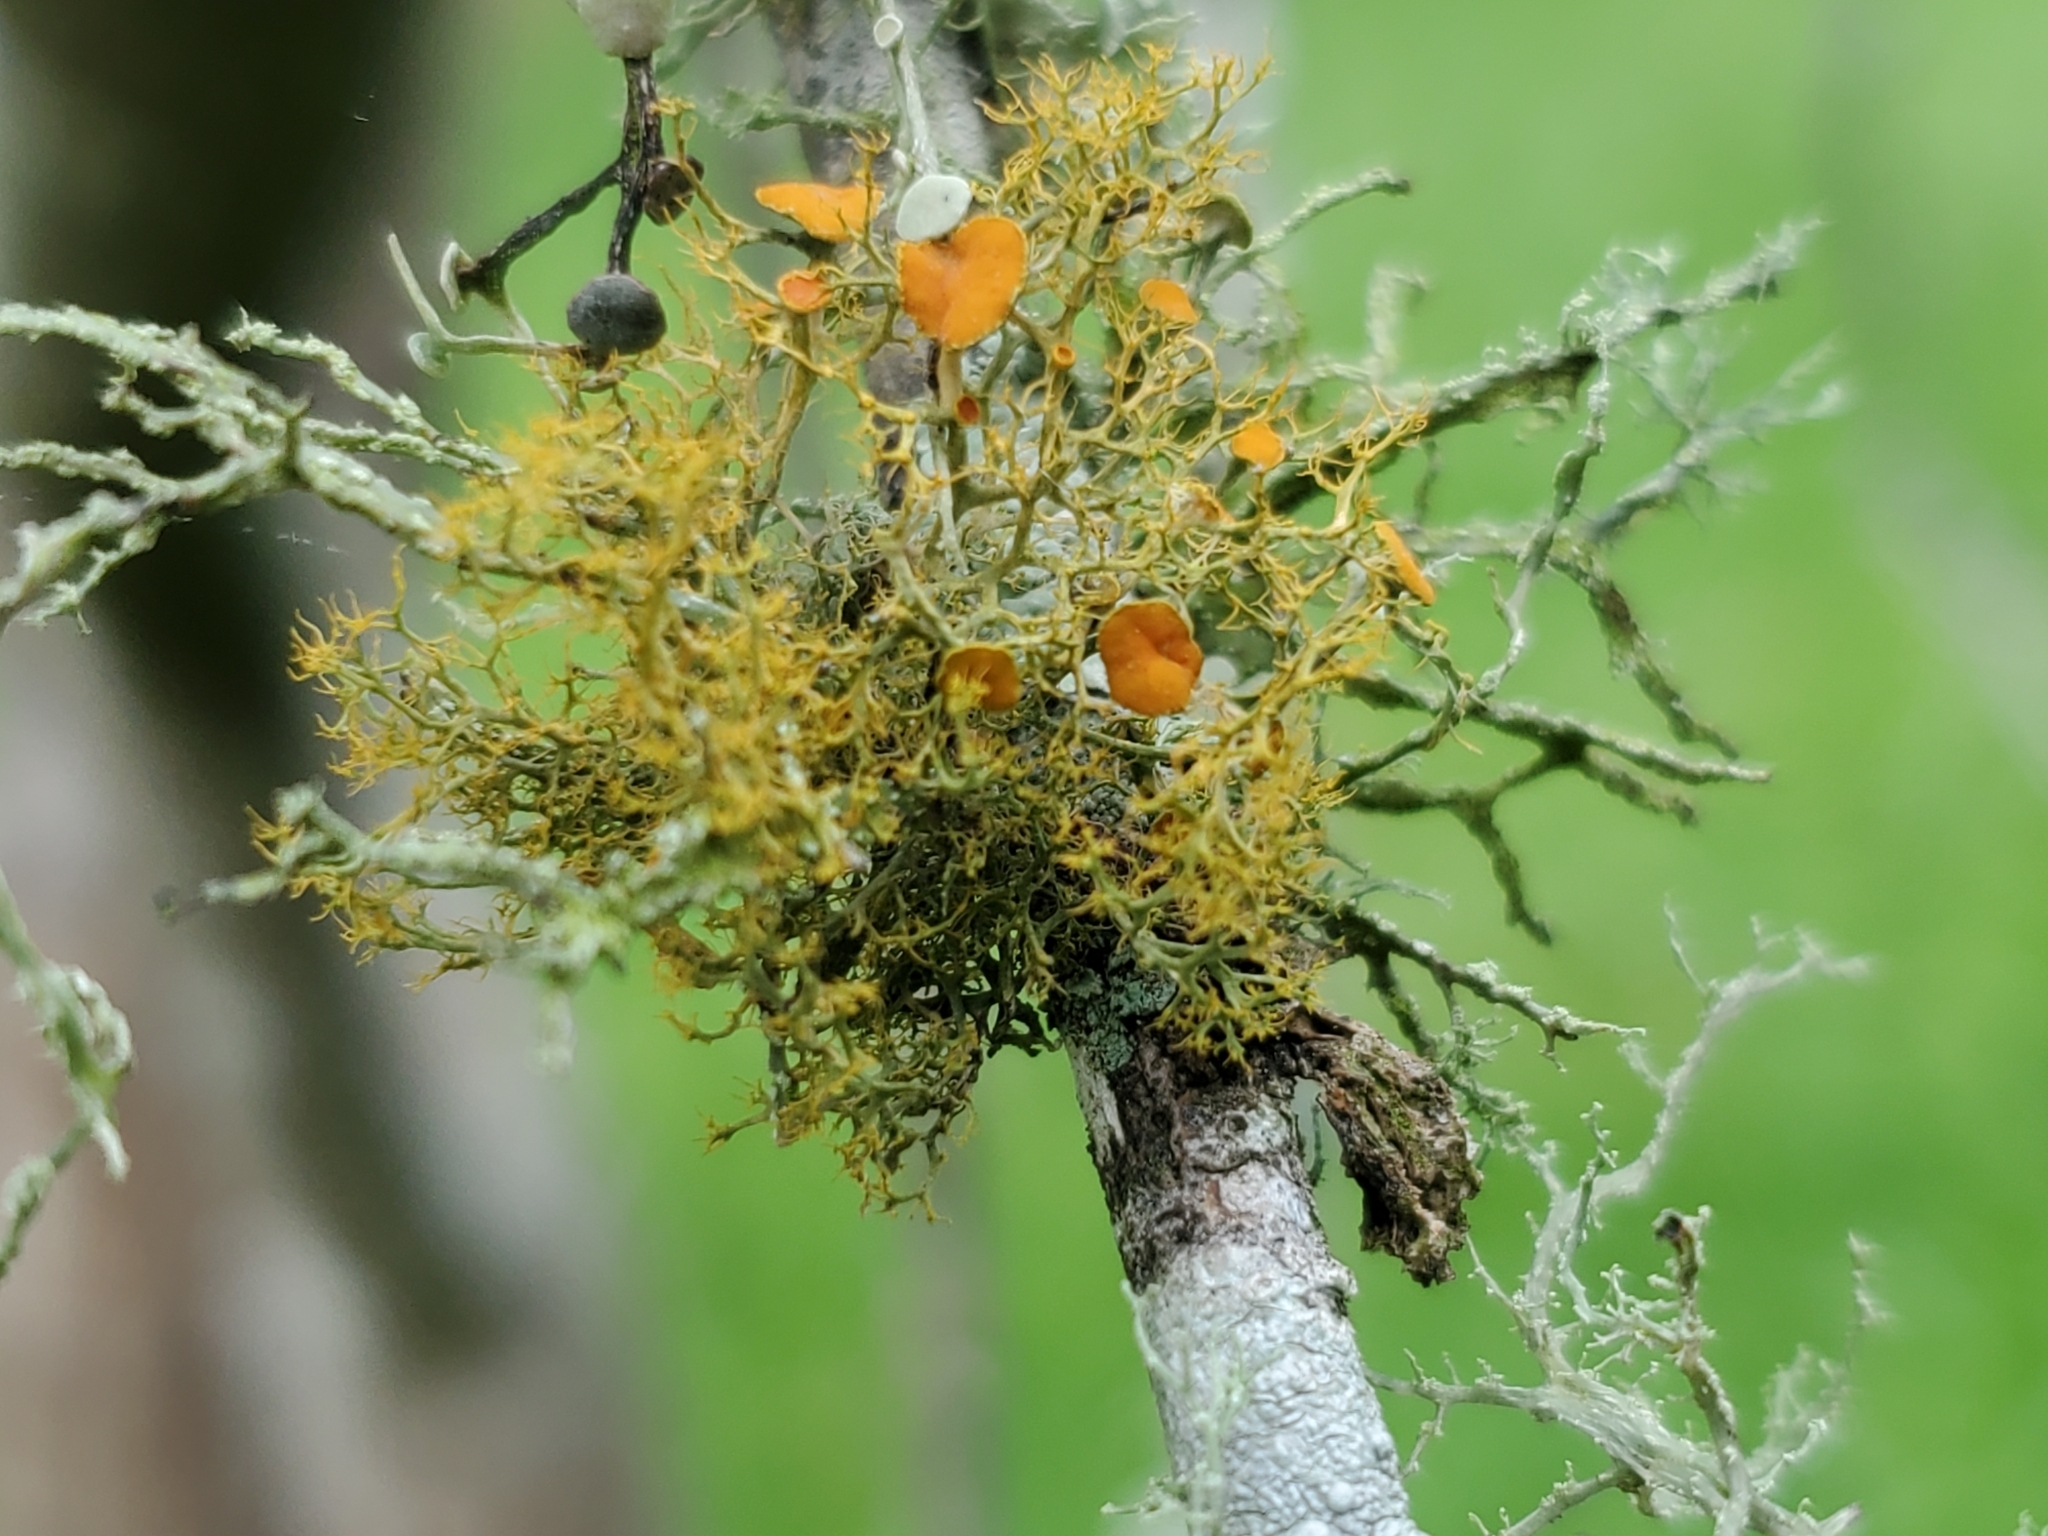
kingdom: Fungi
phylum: Ascomycota
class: Lecanoromycetes
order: Teloschistales
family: Teloschistaceae
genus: Teloschistes
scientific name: Teloschistes exilis
